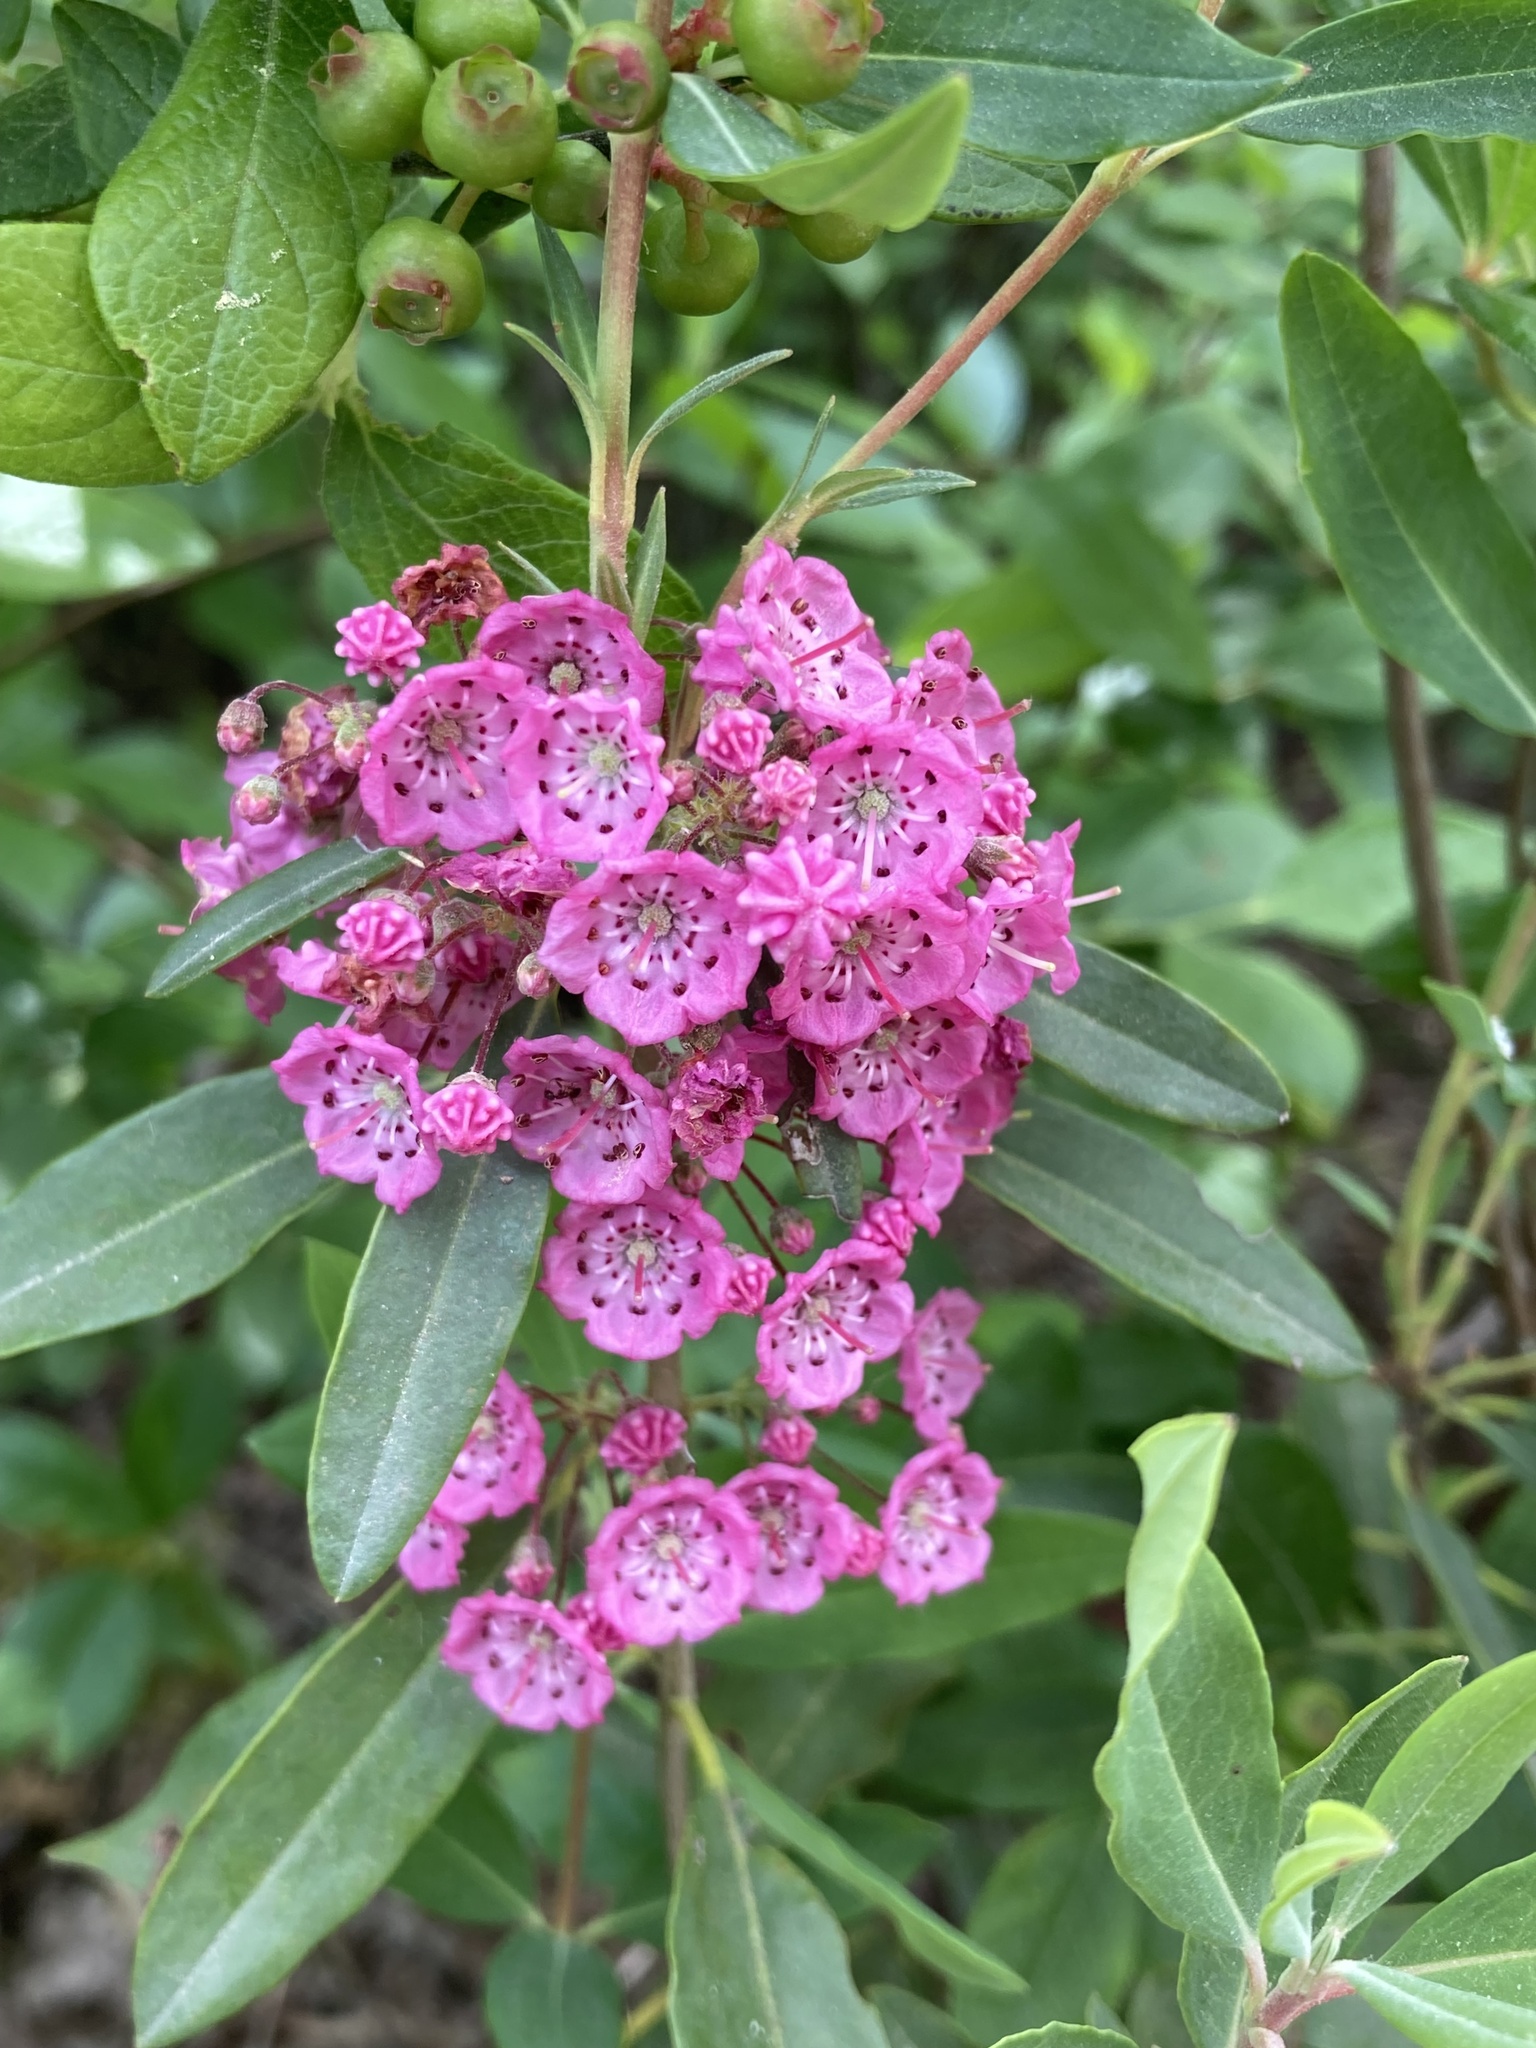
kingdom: Plantae
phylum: Tracheophyta
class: Magnoliopsida
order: Ericales
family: Ericaceae
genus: Kalmia
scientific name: Kalmia angustifolia
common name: Sheep-laurel
